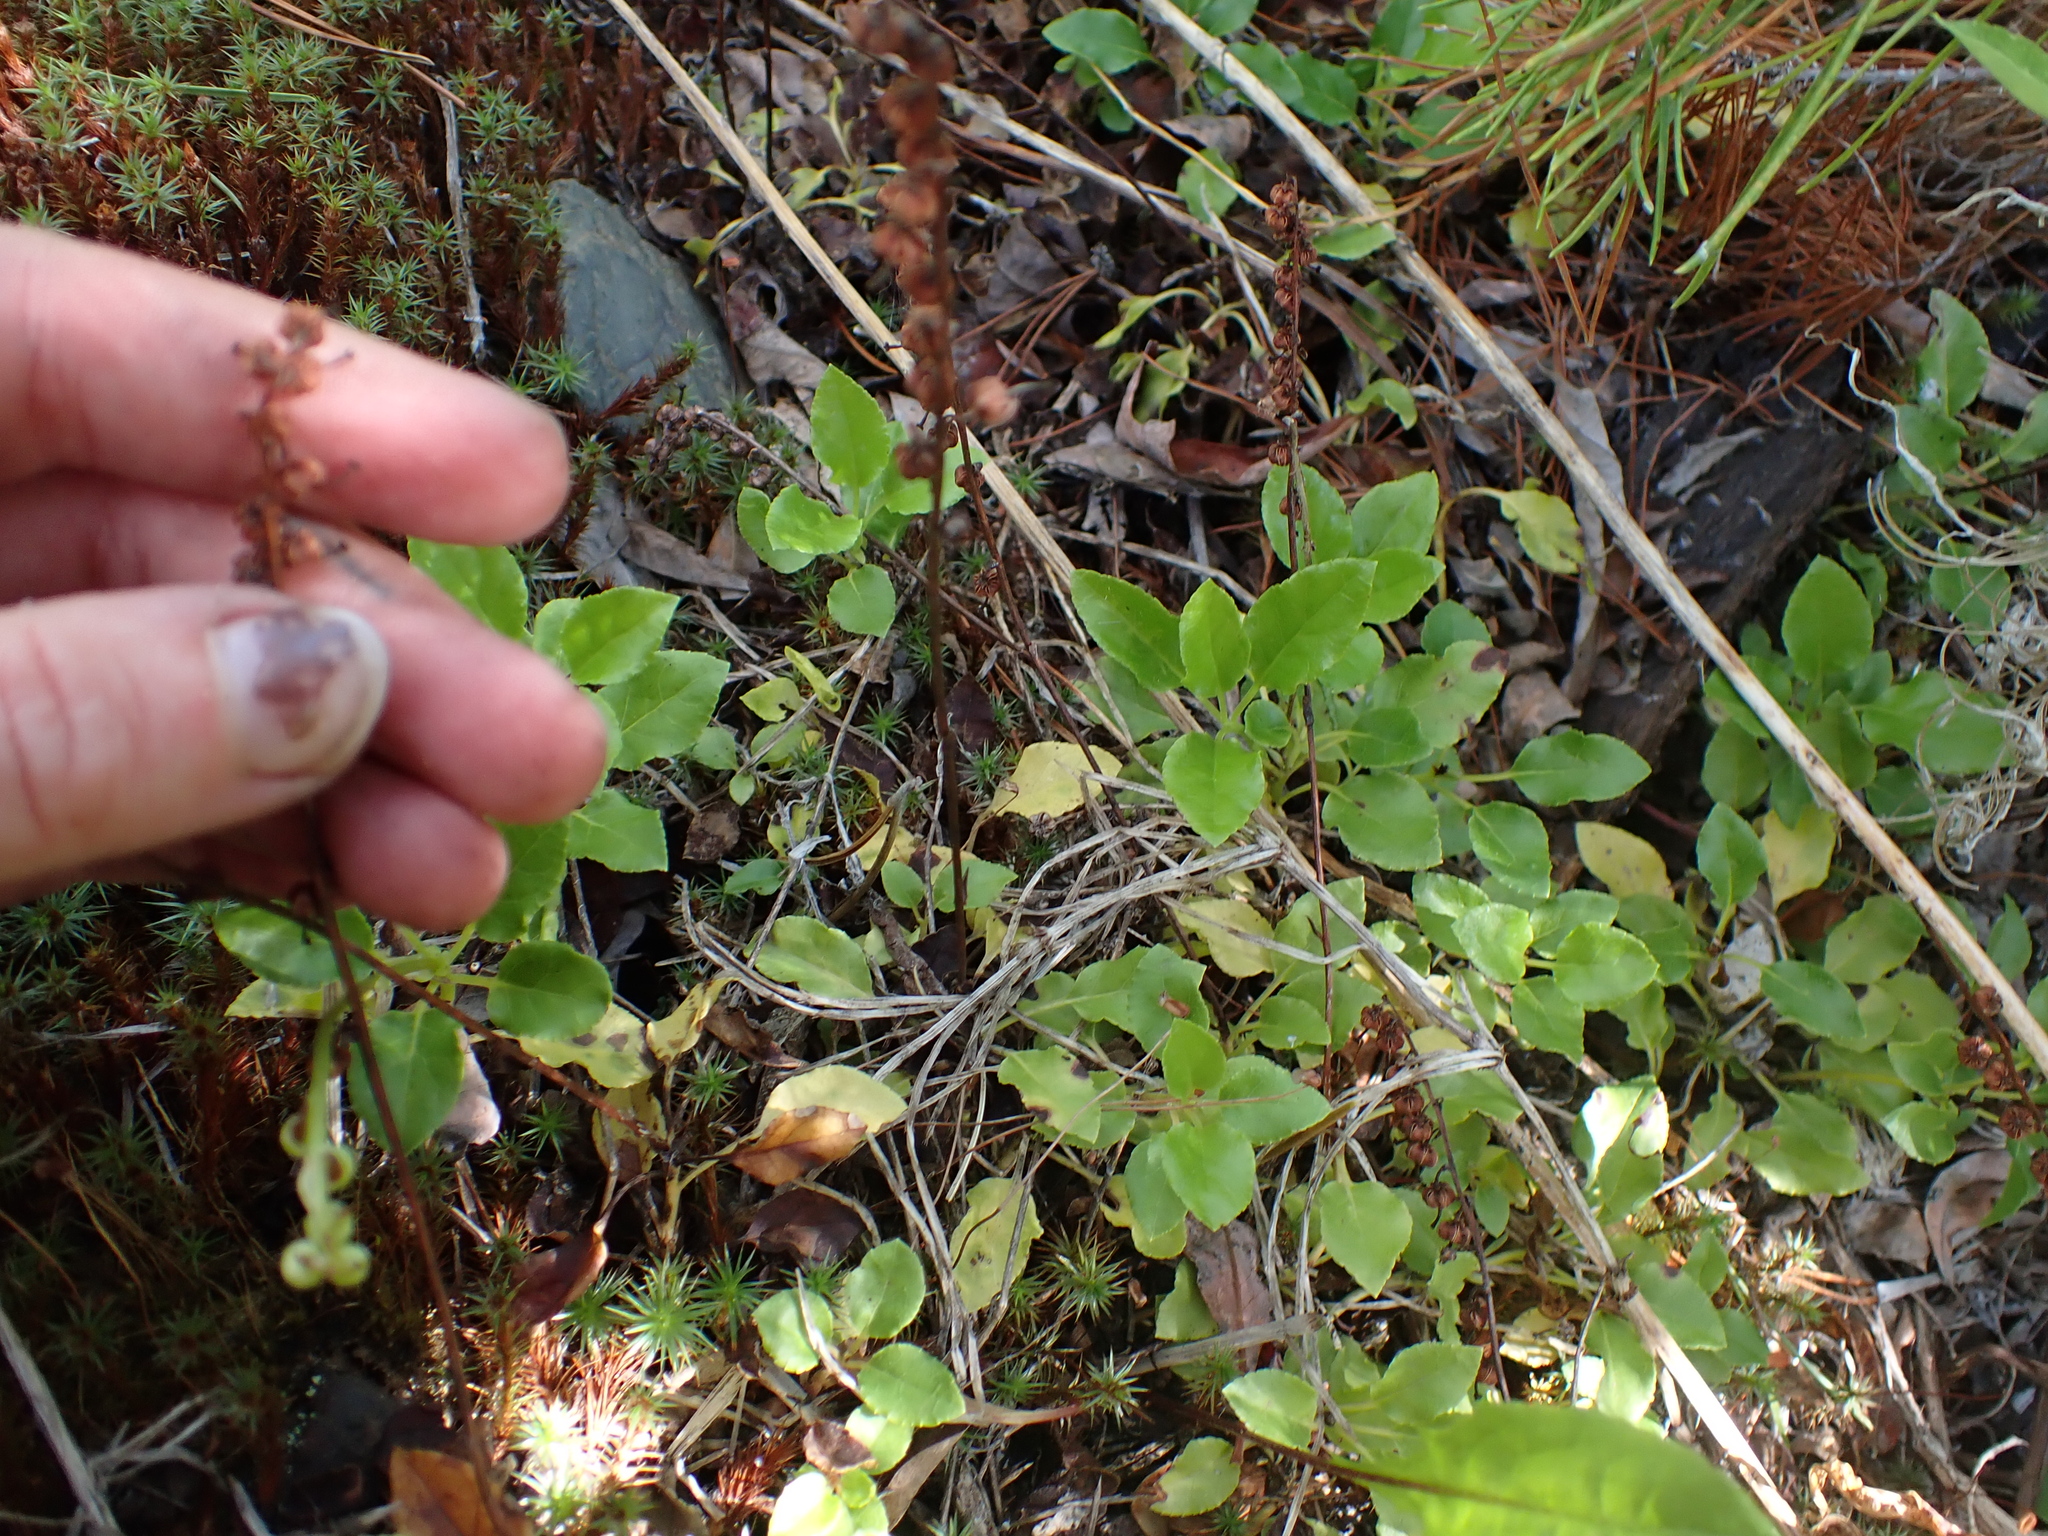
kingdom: Plantae
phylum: Tracheophyta
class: Magnoliopsida
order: Ericales
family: Ericaceae
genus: Orthilia
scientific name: Orthilia secunda
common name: One-sided orthilia
